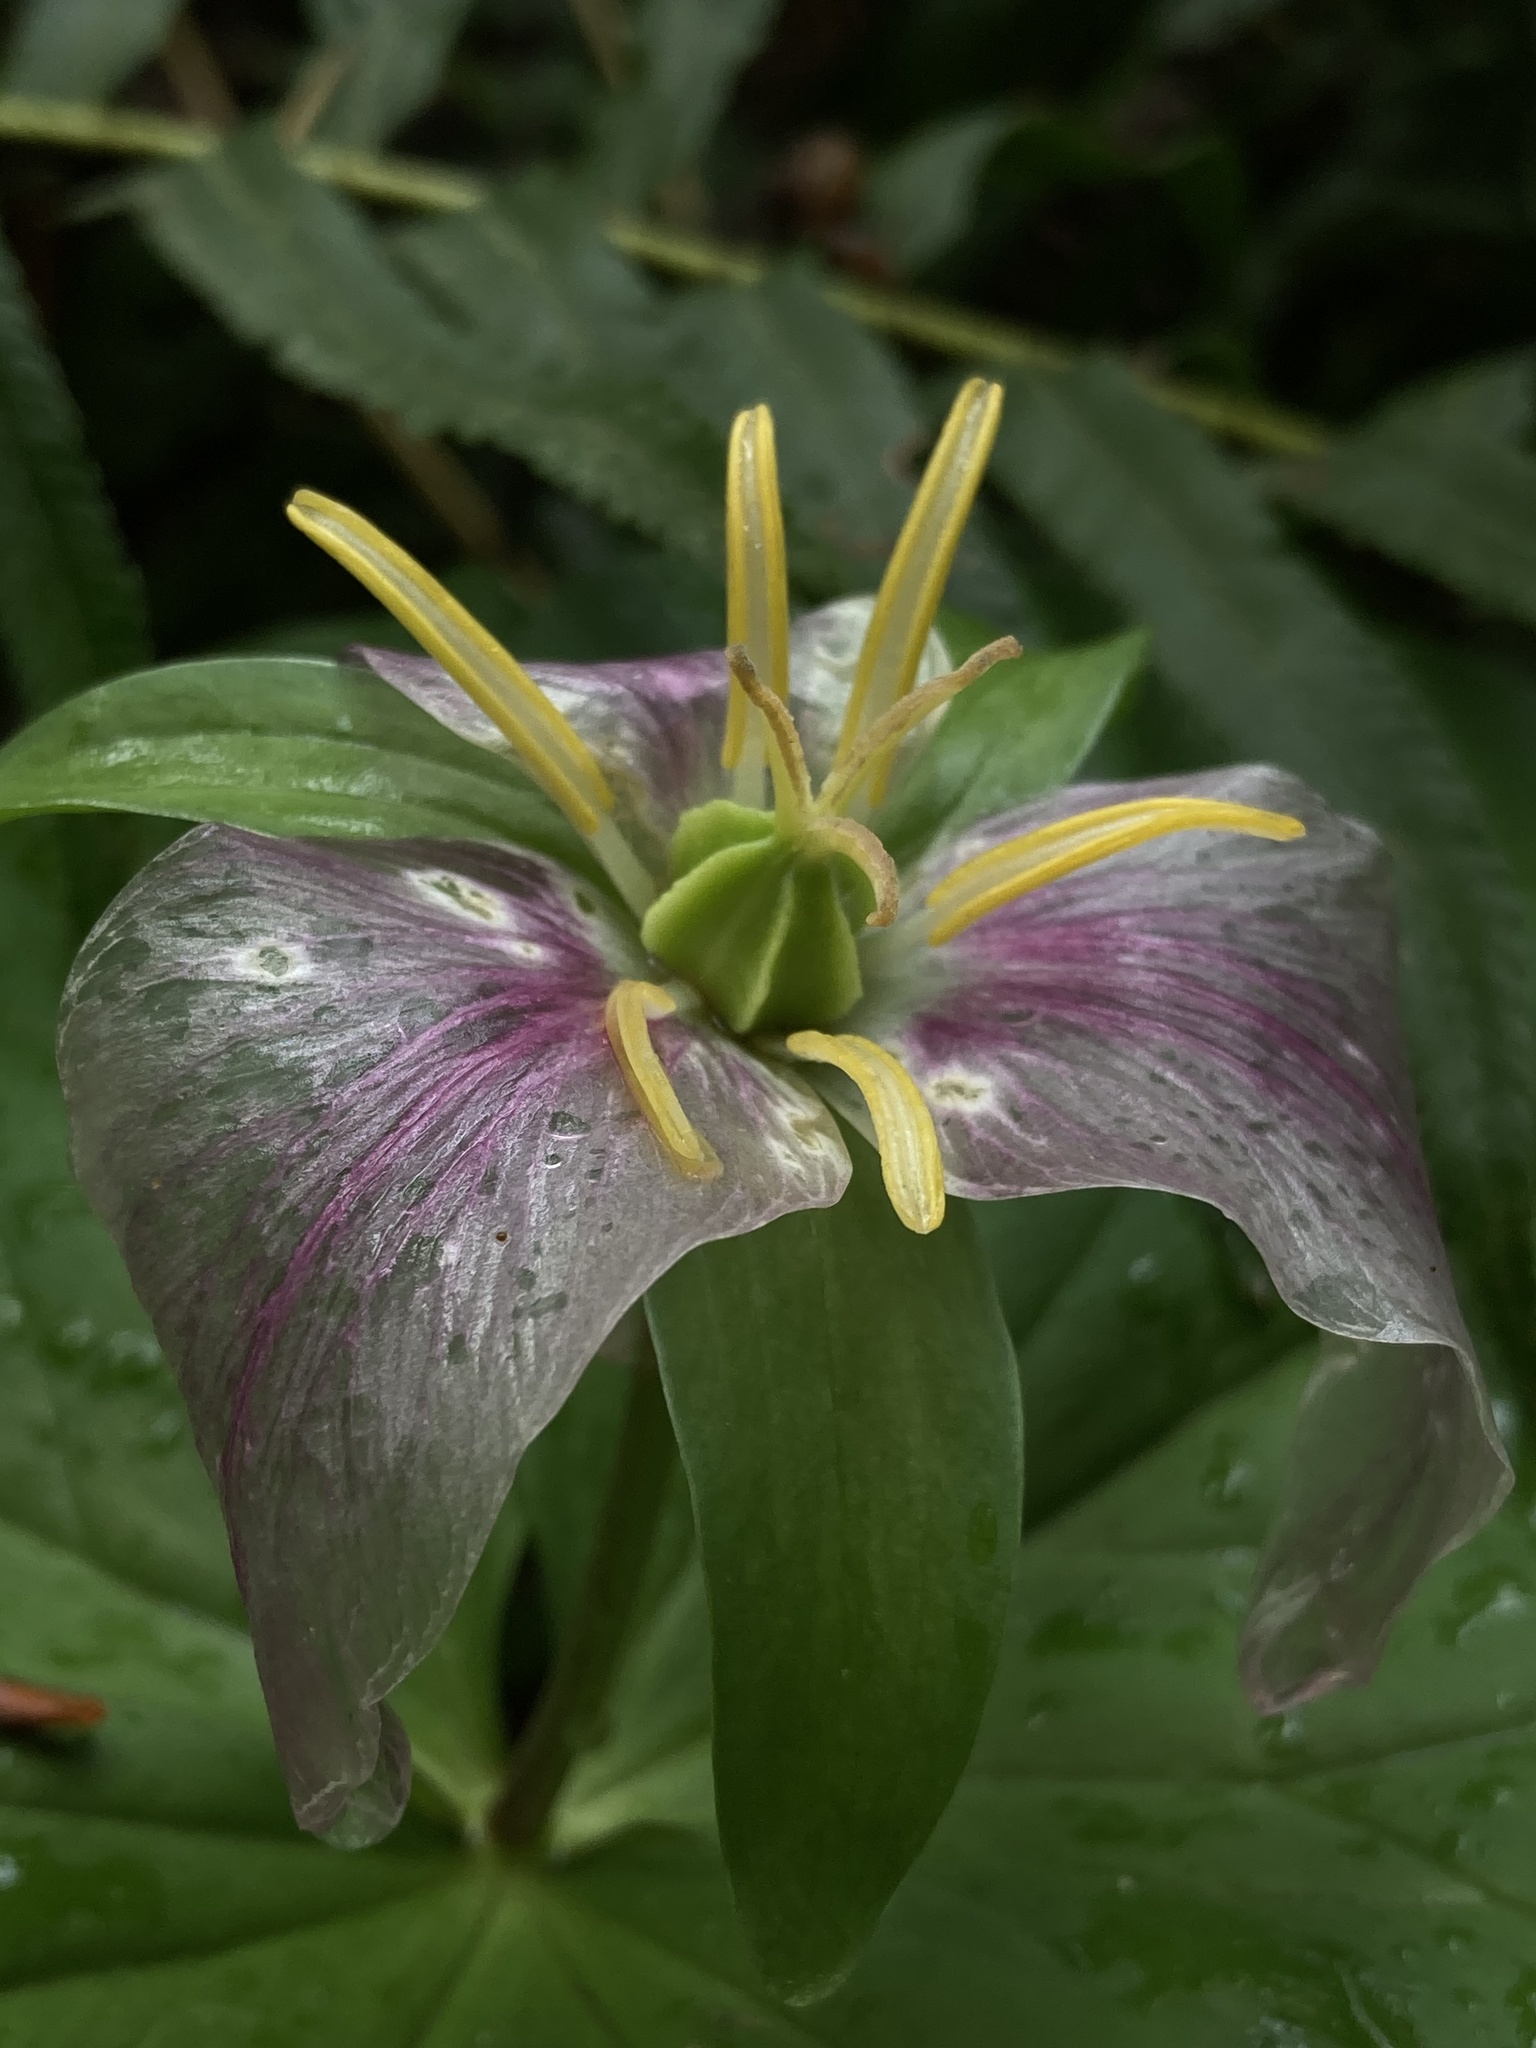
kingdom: Plantae
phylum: Tracheophyta
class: Liliopsida
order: Liliales
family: Melanthiaceae
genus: Trillium
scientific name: Trillium ovatum
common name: Pacific trillium
